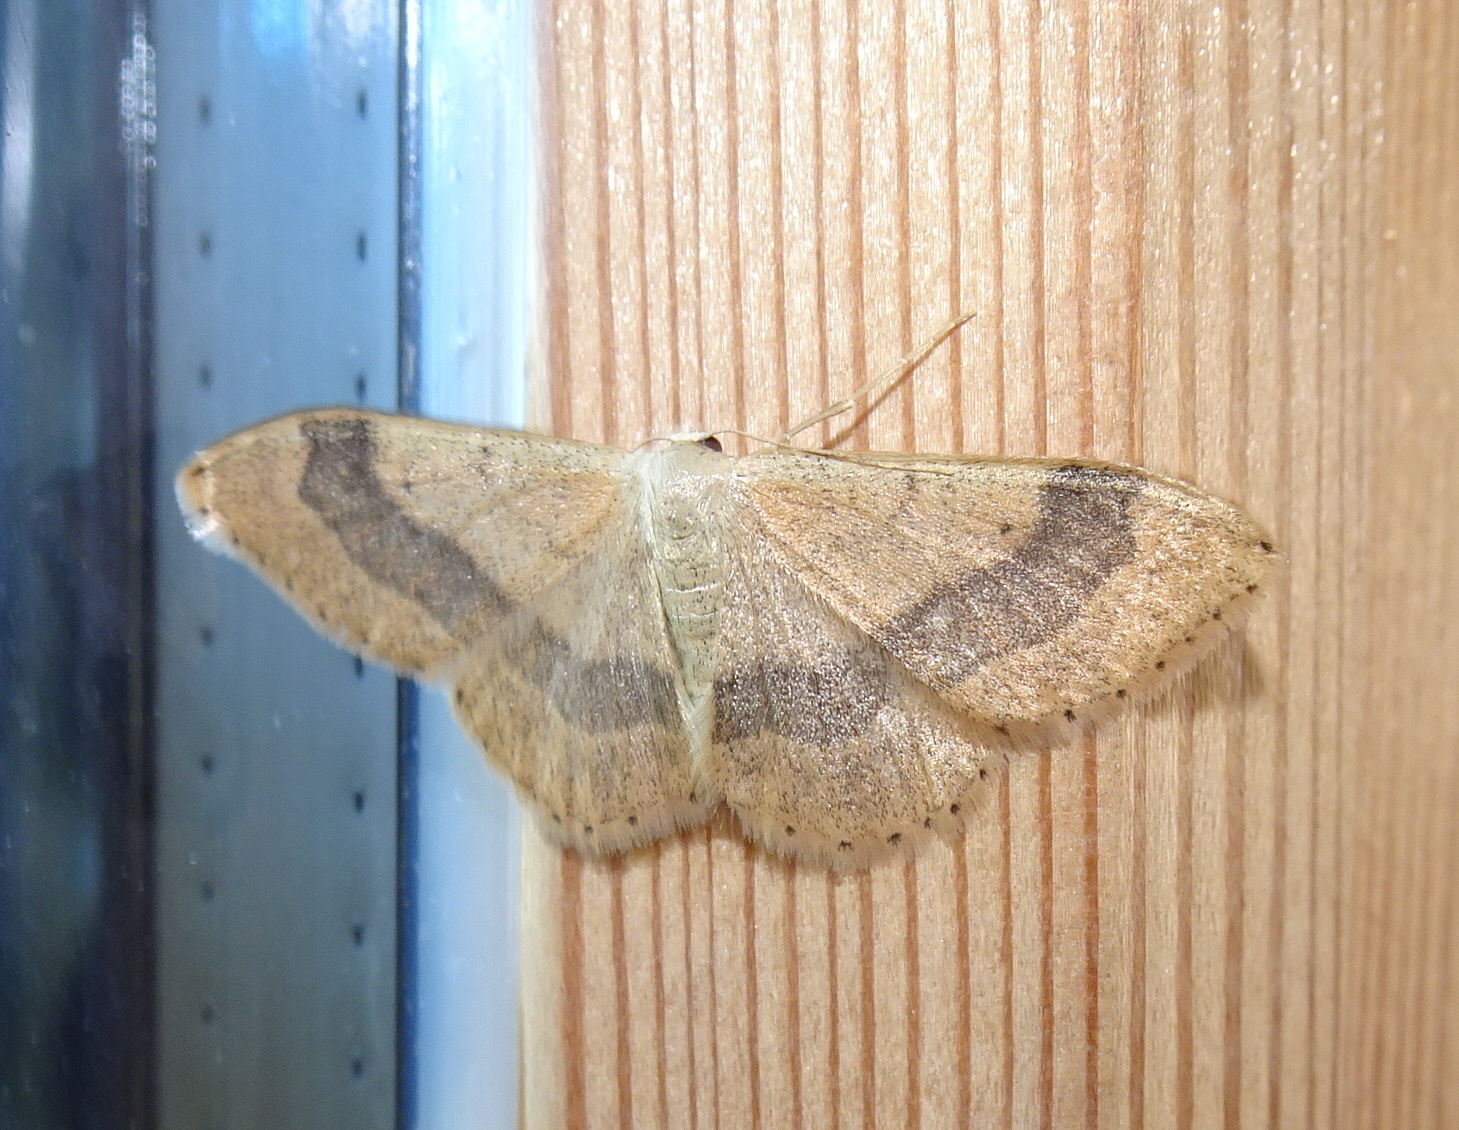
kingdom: Animalia
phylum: Arthropoda
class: Insecta
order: Lepidoptera
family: Geometridae
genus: Idaea
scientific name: Idaea aversata
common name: Riband wave
